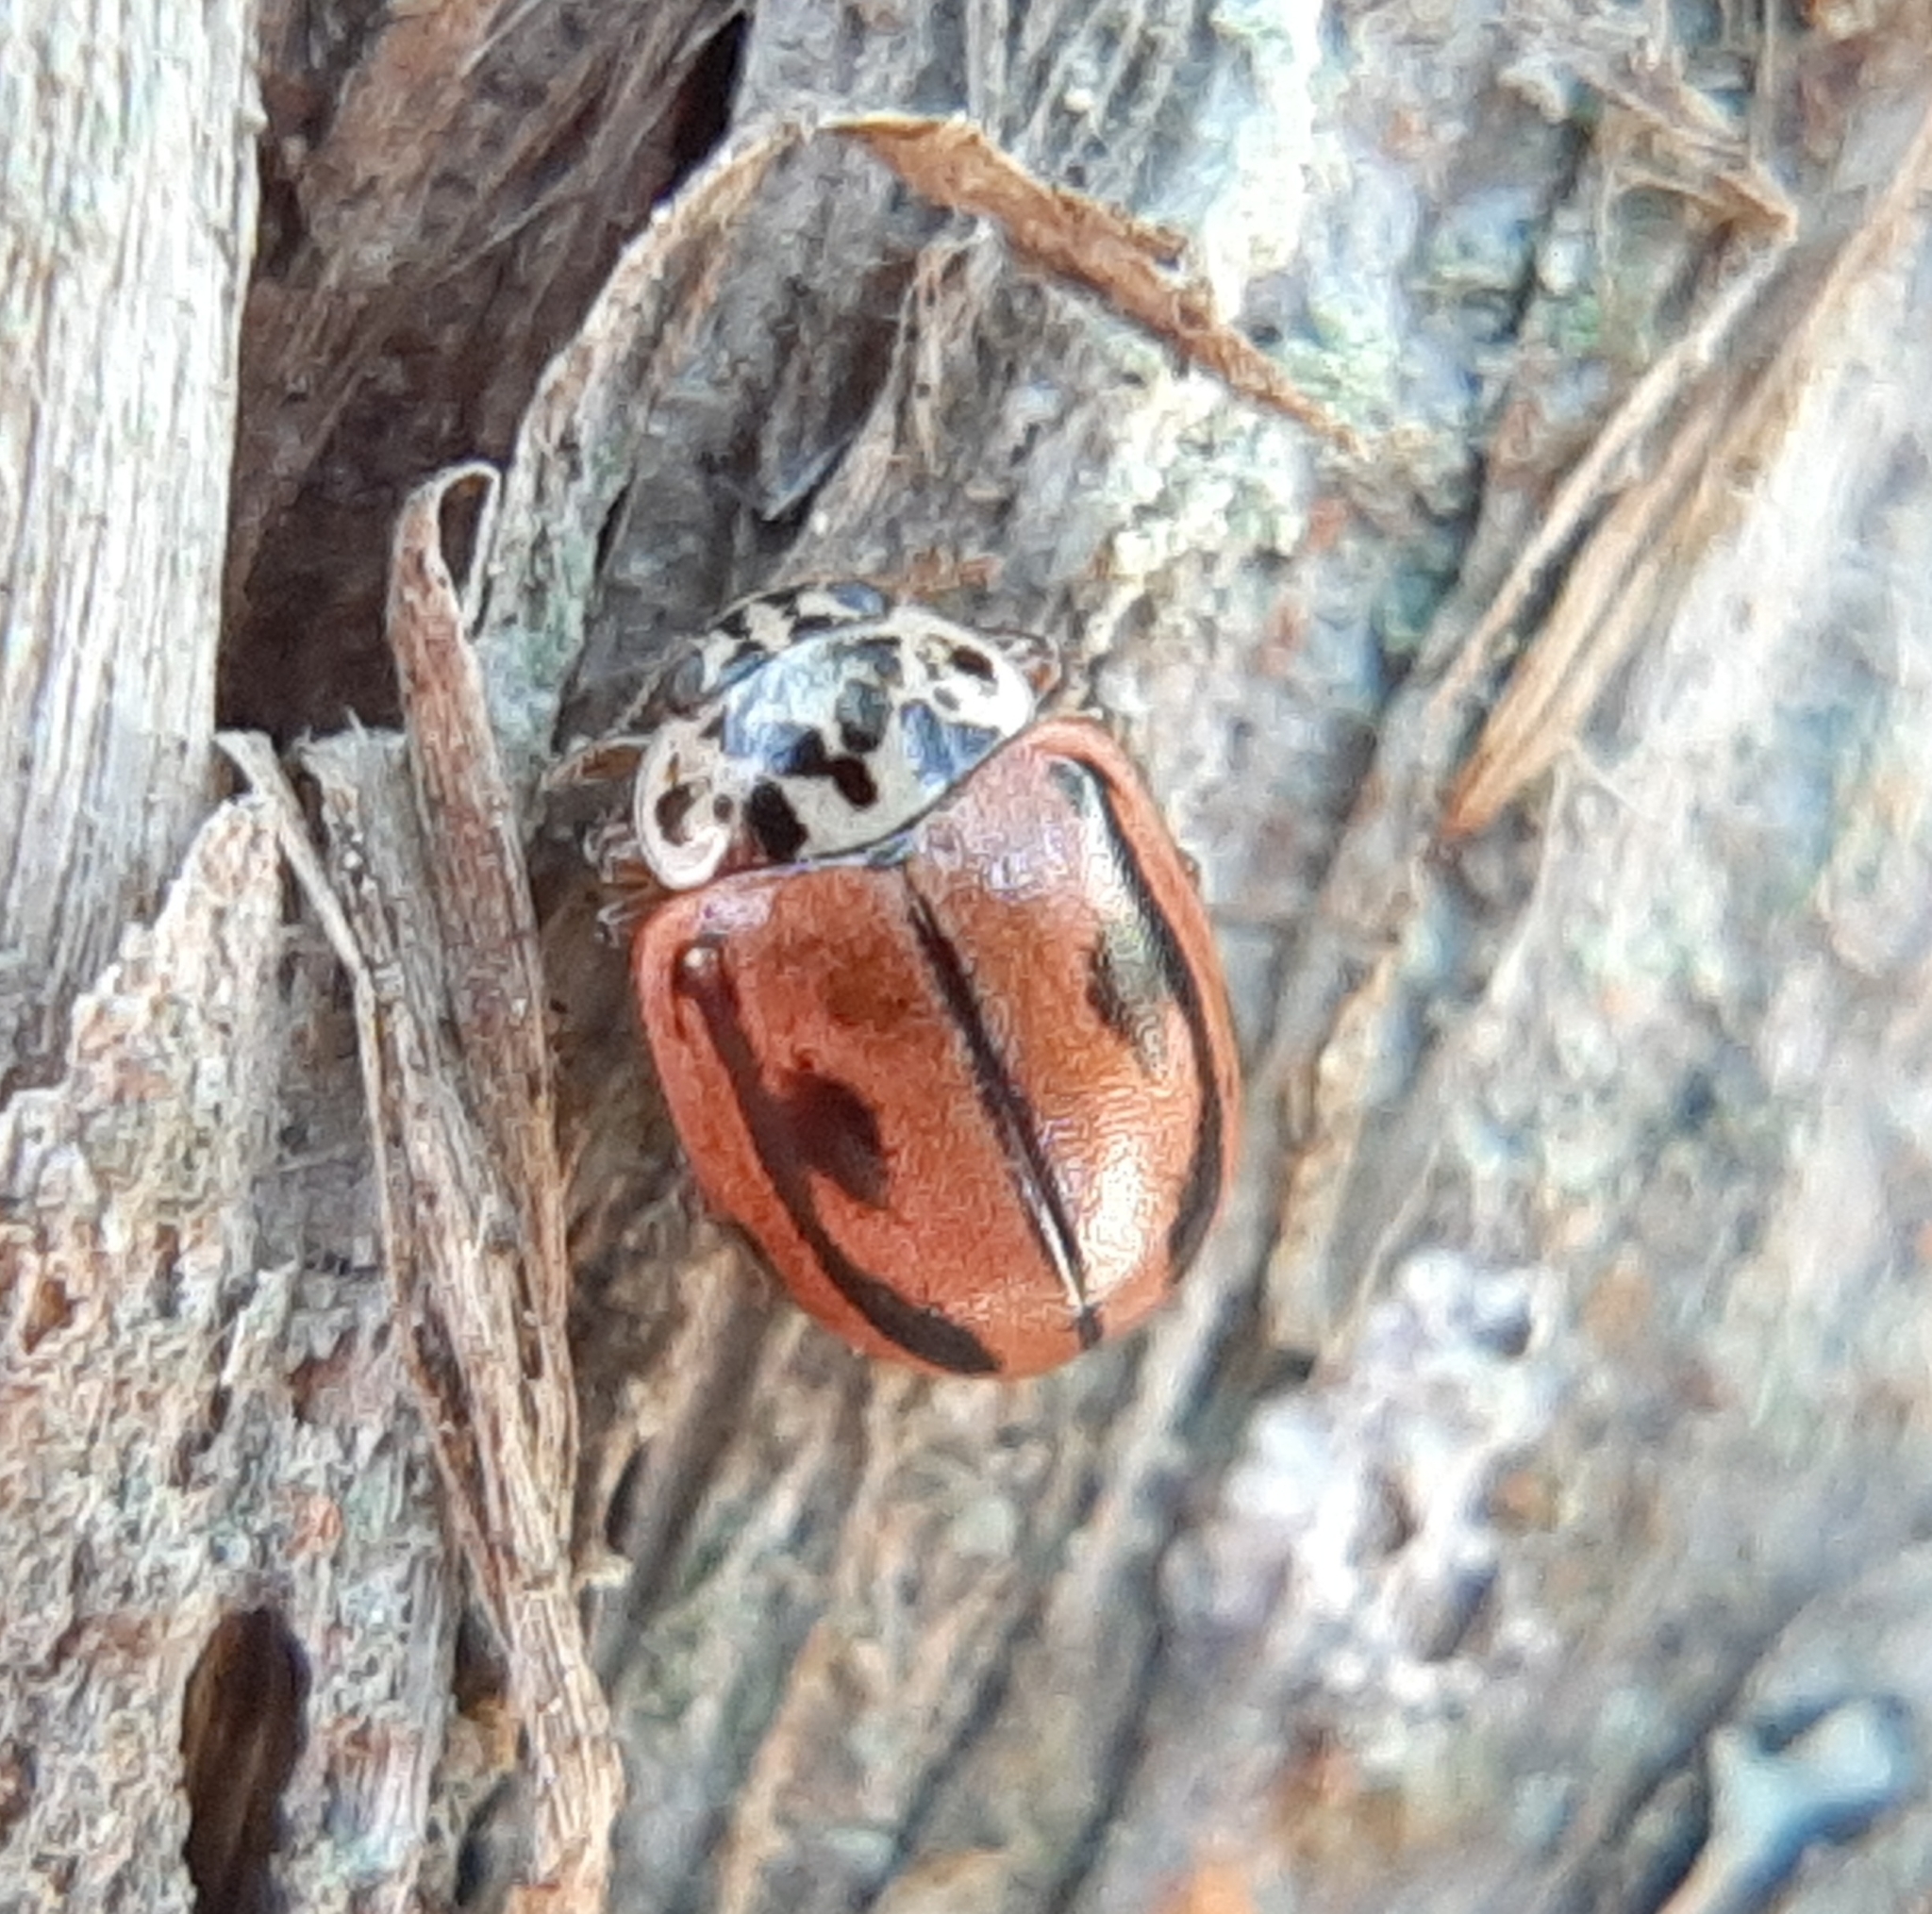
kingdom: Animalia
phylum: Arthropoda
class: Insecta
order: Coleoptera
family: Coccinellidae
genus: Mulsantina
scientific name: Mulsantina hudsonica
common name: Hudsonian ladybird
